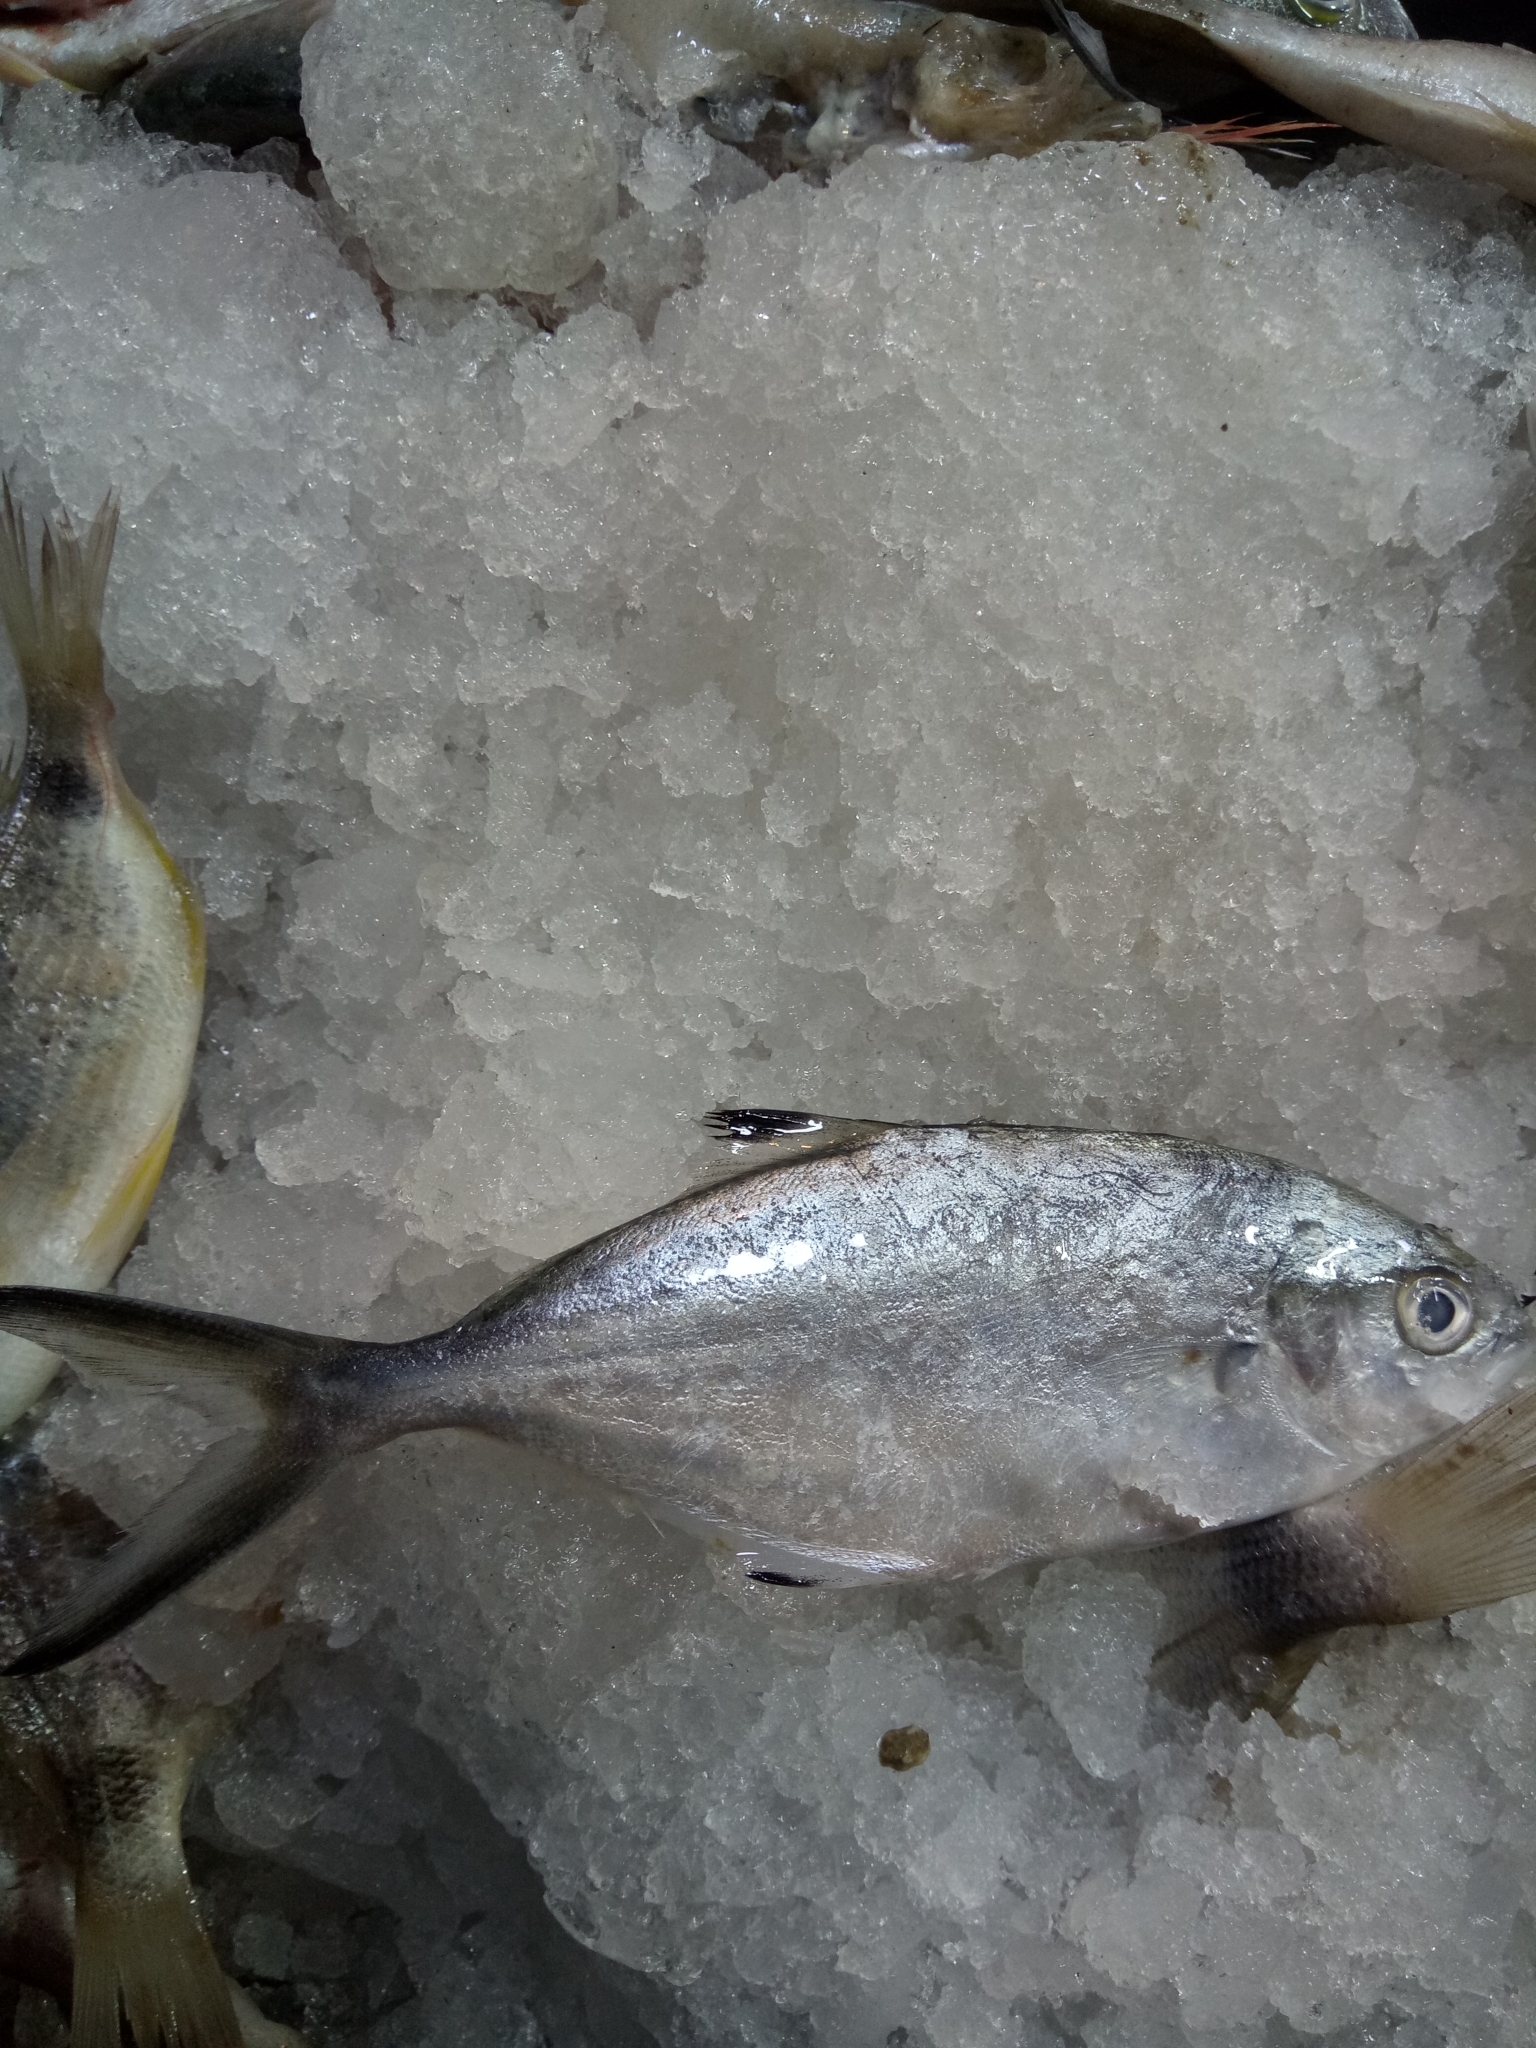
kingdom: Animalia
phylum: Chordata
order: Perciformes
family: Carangidae
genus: Trachinotus
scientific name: Trachinotus ovatus
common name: Pompano
